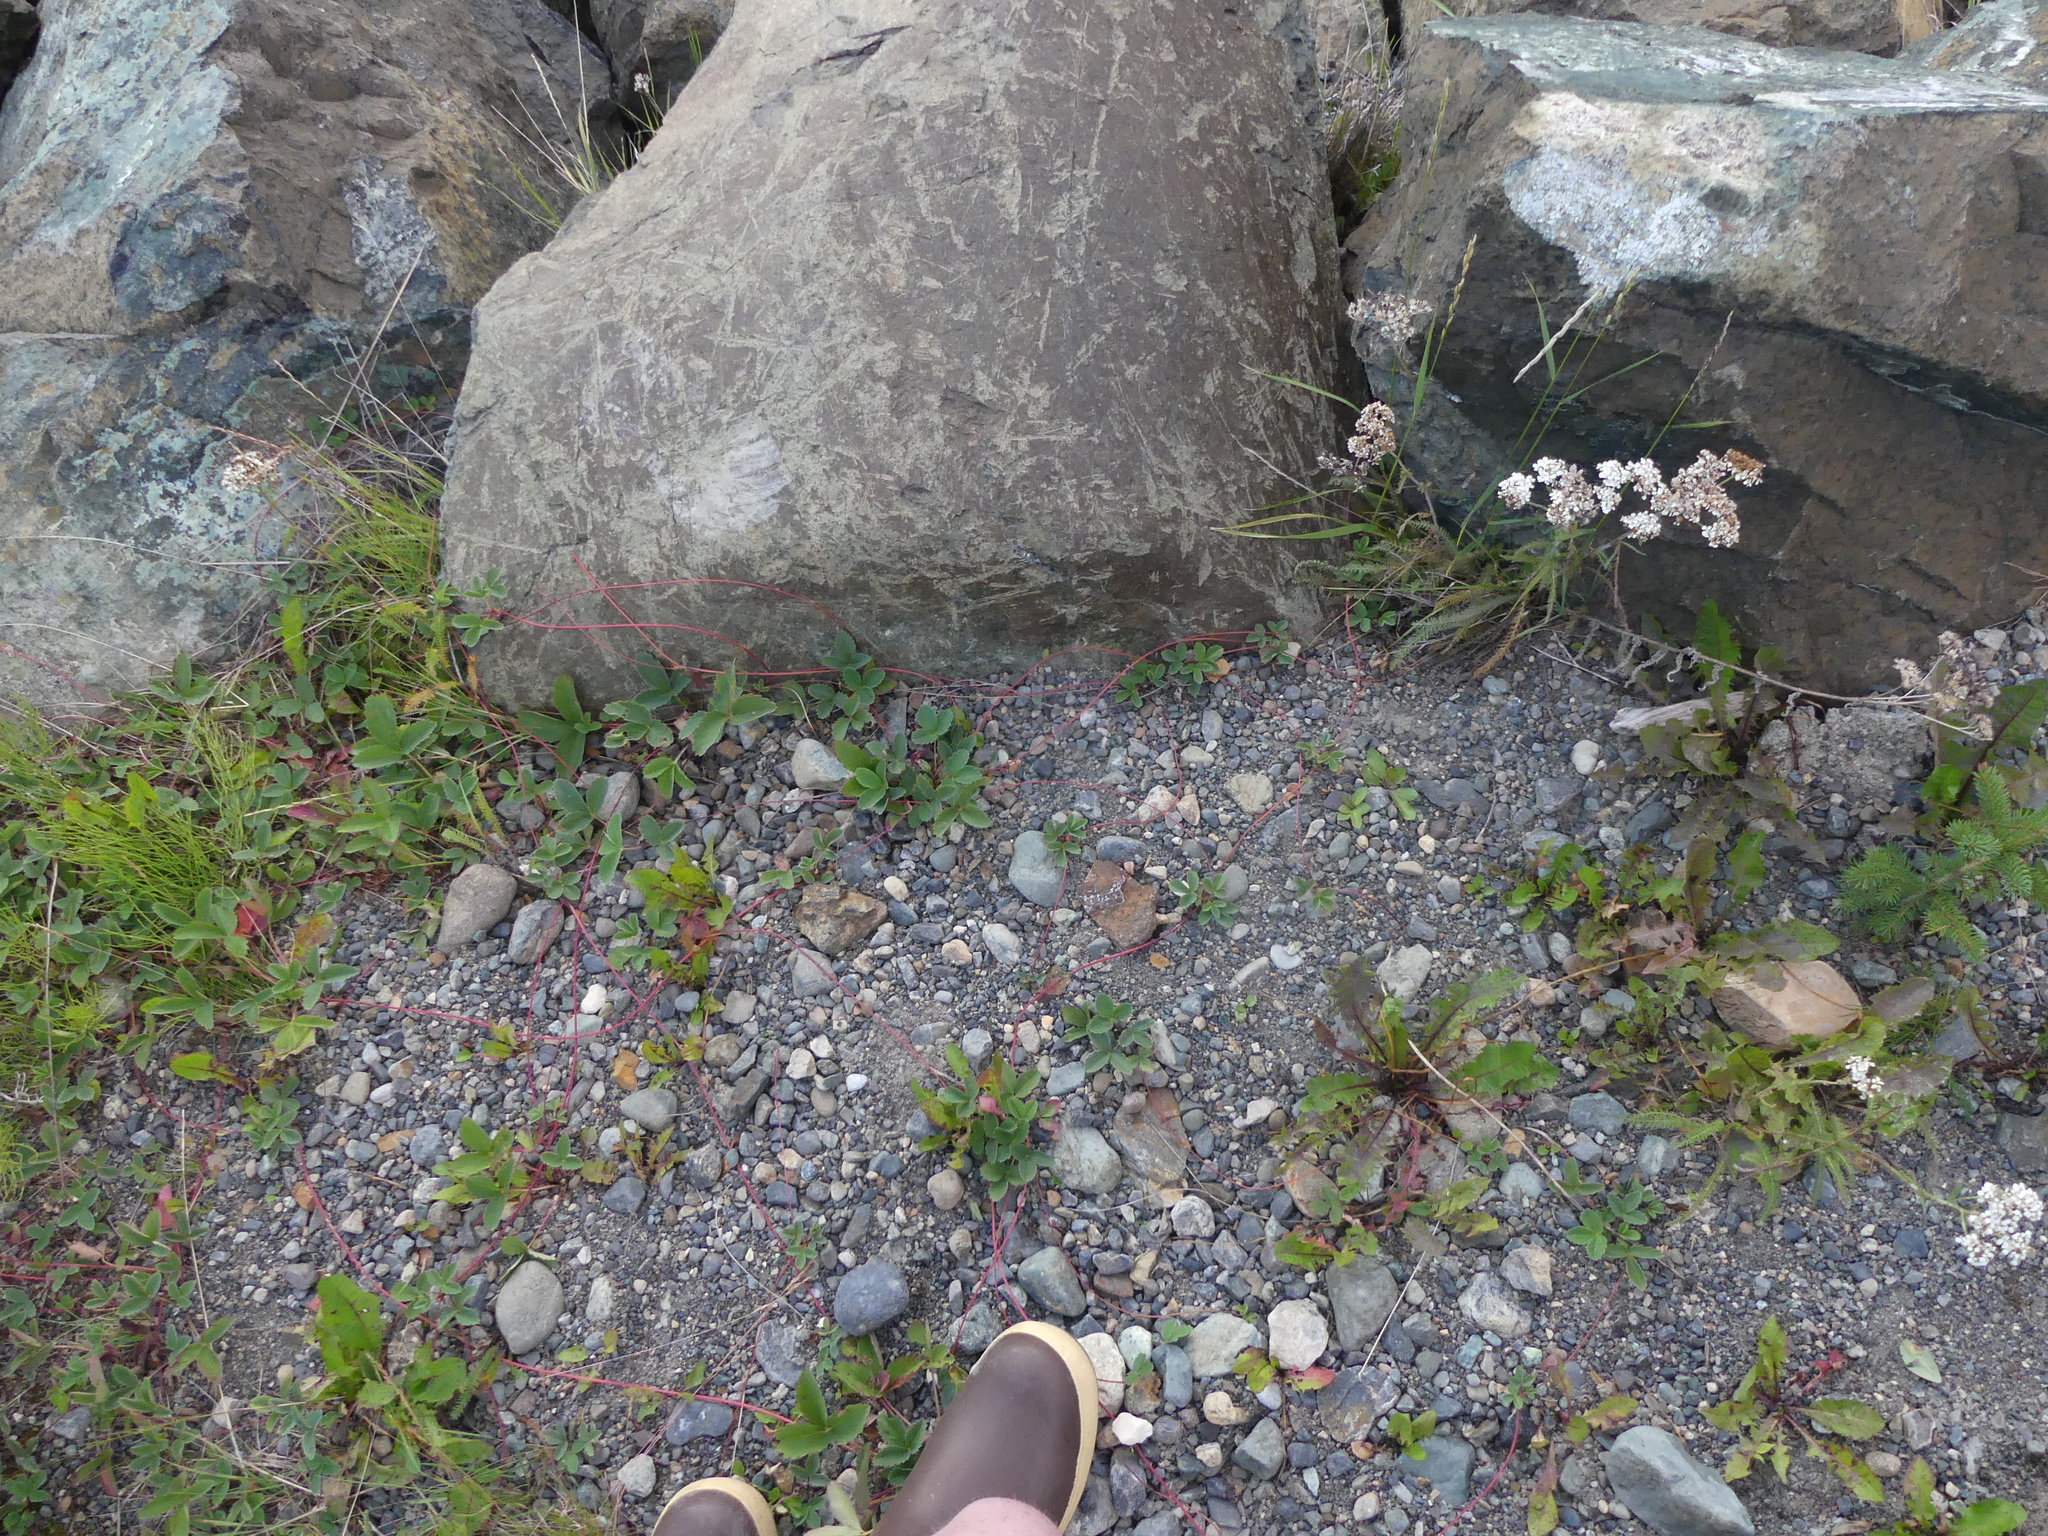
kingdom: Plantae
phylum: Tracheophyta
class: Magnoliopsida
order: Rosales
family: Rosaceae
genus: Fragaria
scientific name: Fragaria virginiana
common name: Thickleaved wild strawberry
